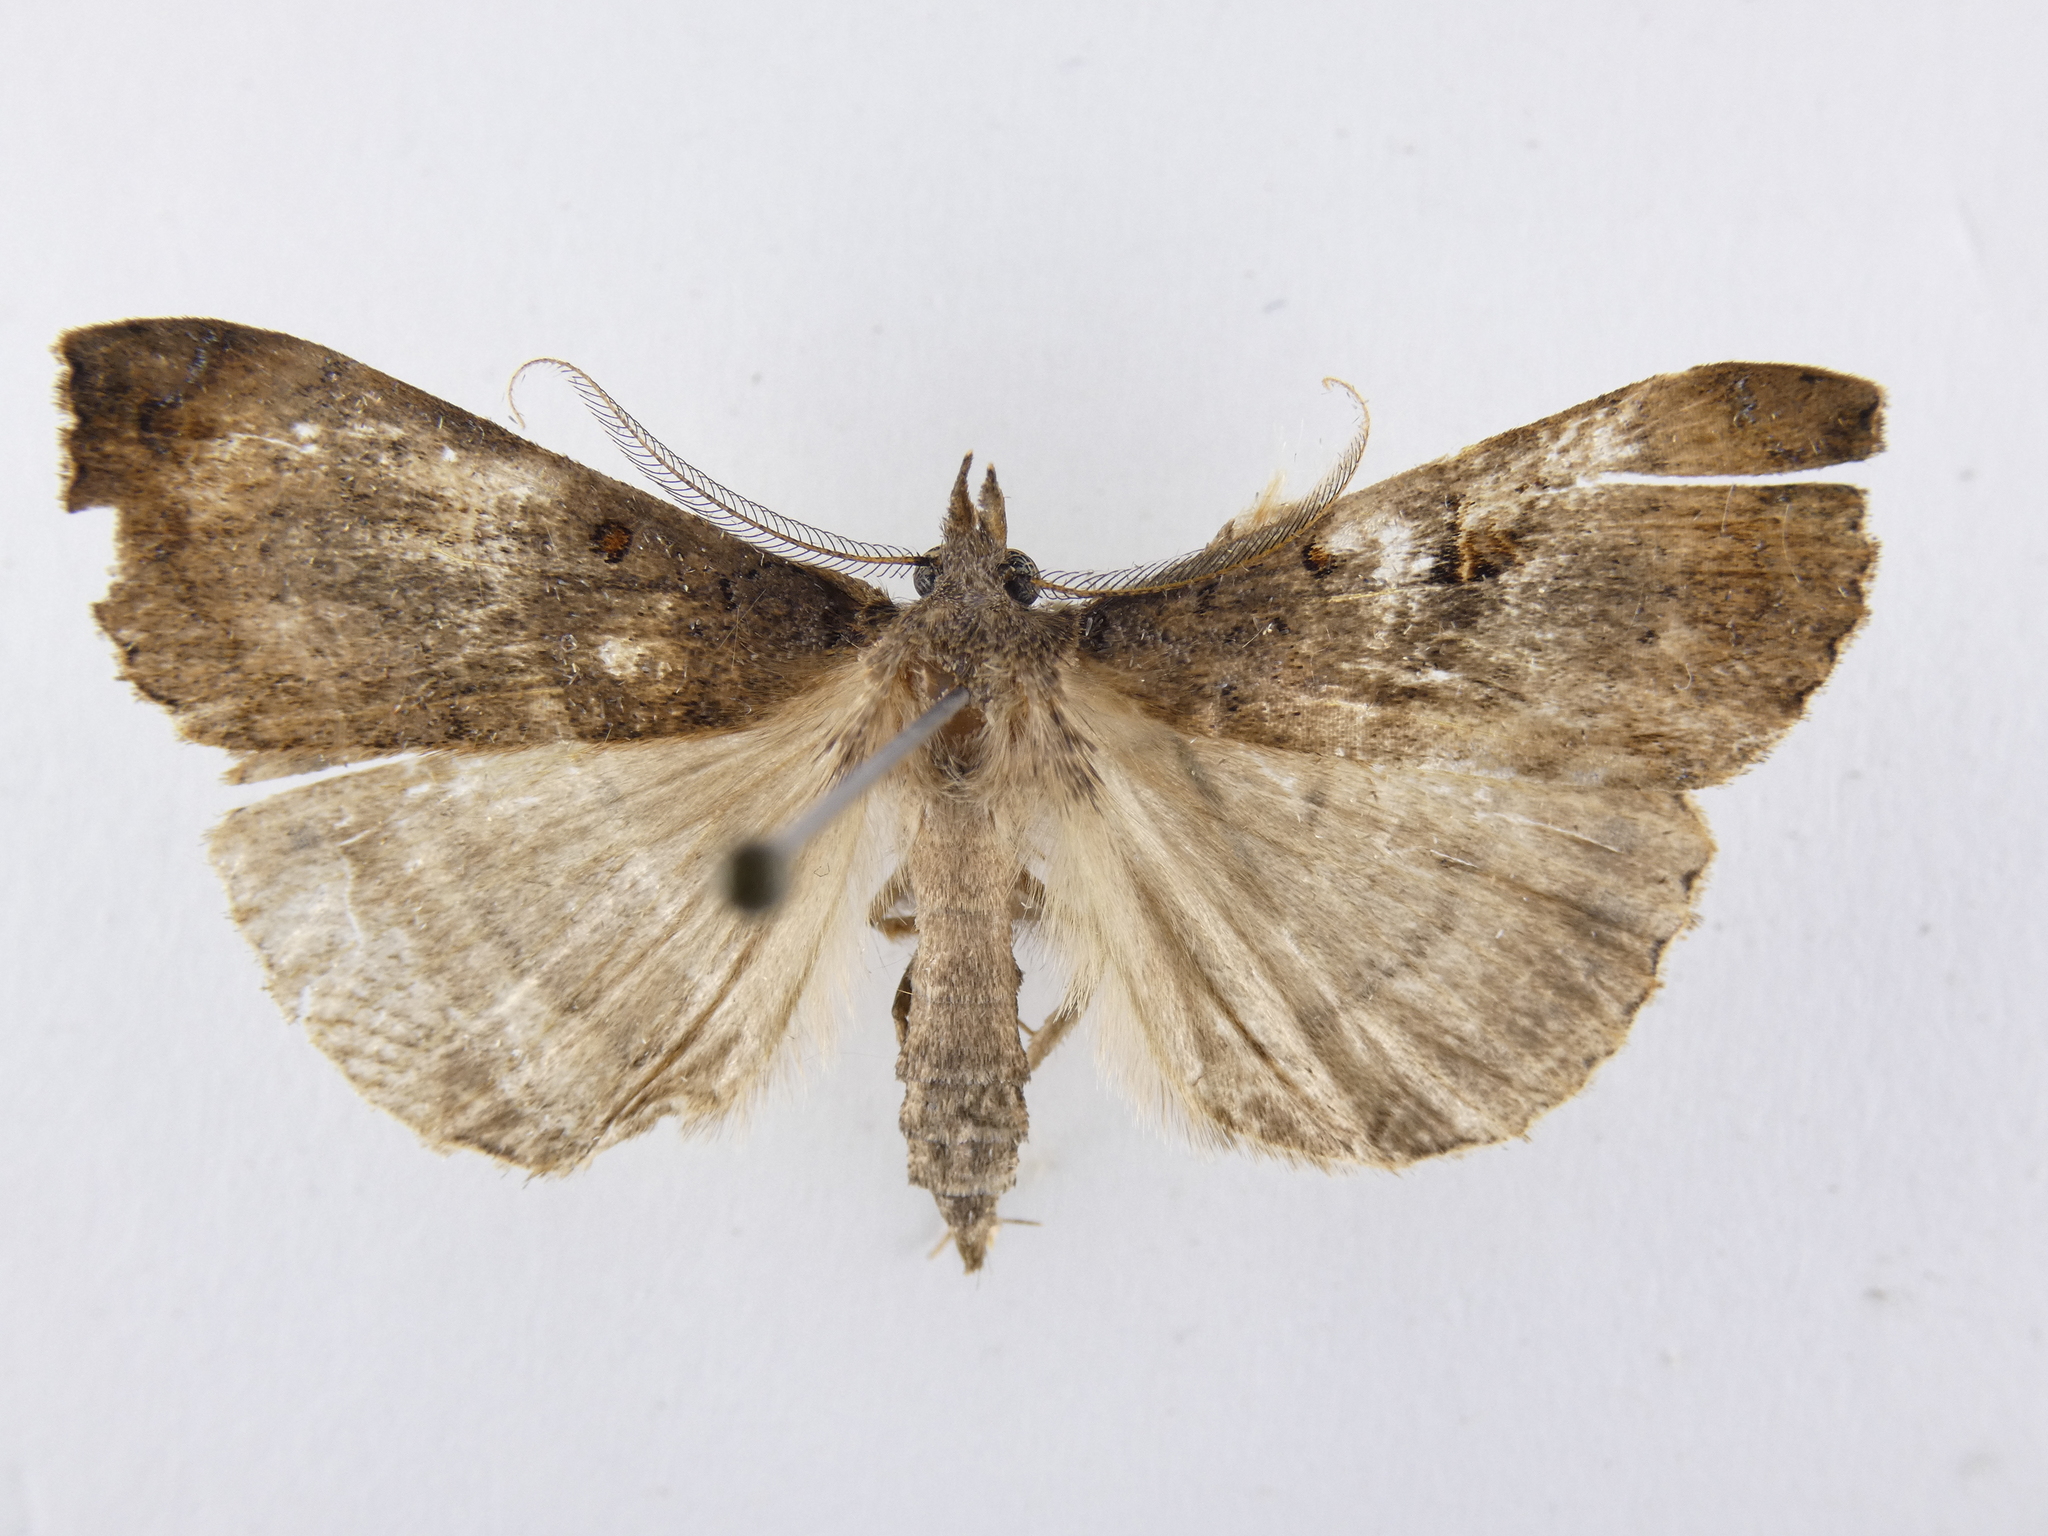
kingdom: Animalia
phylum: Arthropoda
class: Insecta
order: Lepidoptera
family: Erebidae
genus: Rhapsa
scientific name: Rhapsa scotosialis
